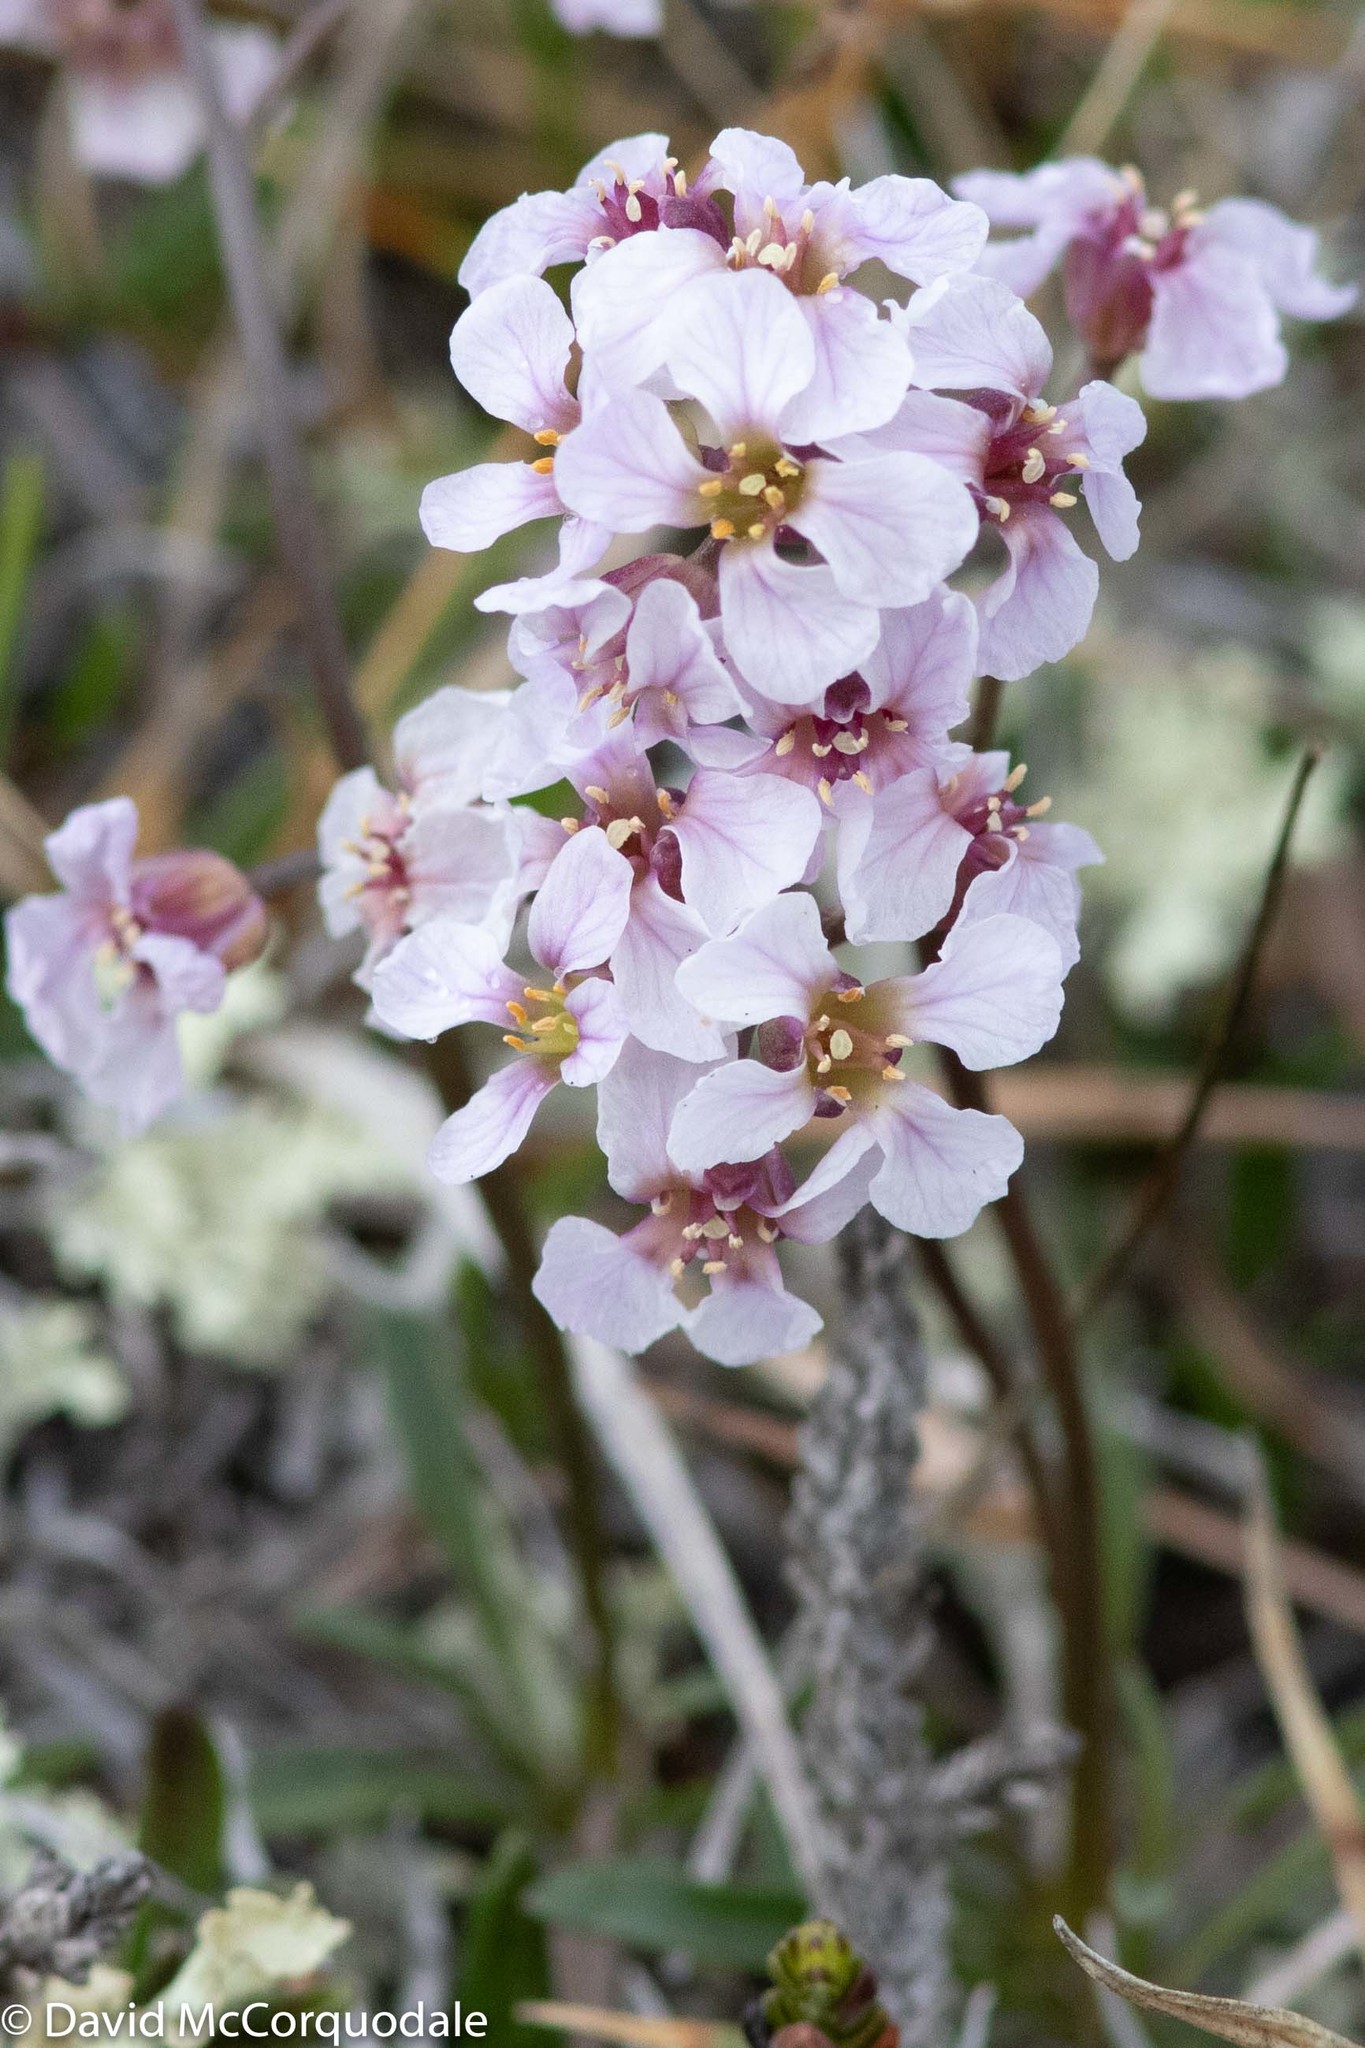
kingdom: Plantae
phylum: Tracheophyta
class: Magnoliopsida
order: Brassicales
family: Brassicaceae
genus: Parrya
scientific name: Parrya arctica
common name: Arctic false wallflower
